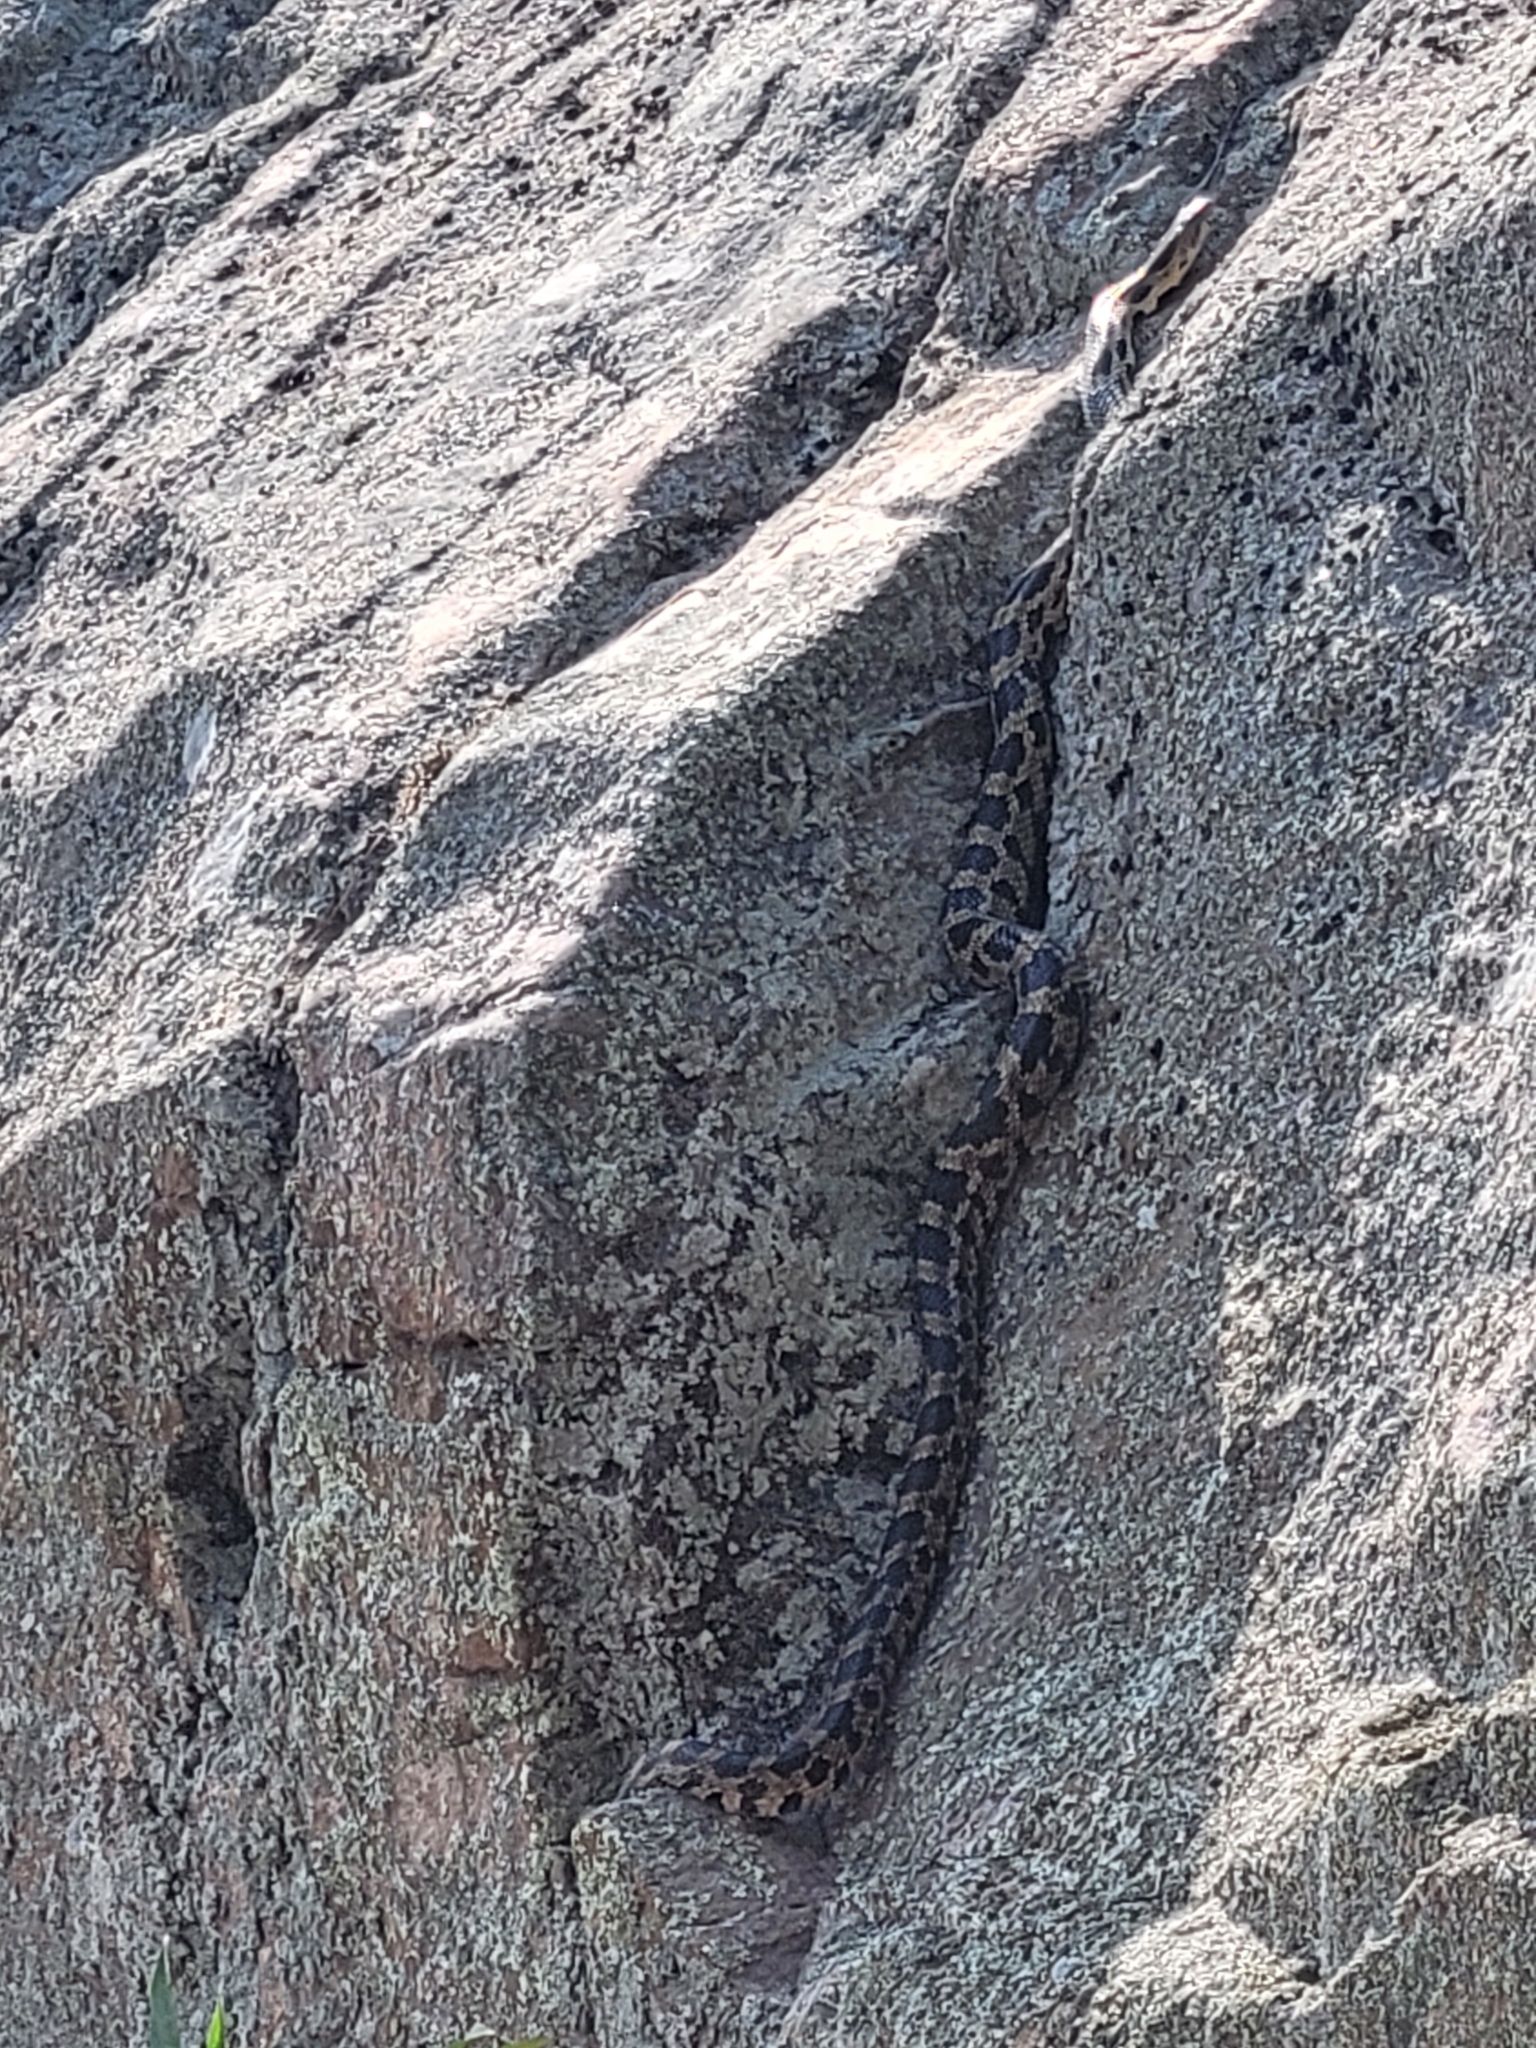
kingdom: Animalia
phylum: Chordata
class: Squamata
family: Colubridae
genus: Pantherophis
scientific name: Pantherophis vulpinus
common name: Eastern fox snake
